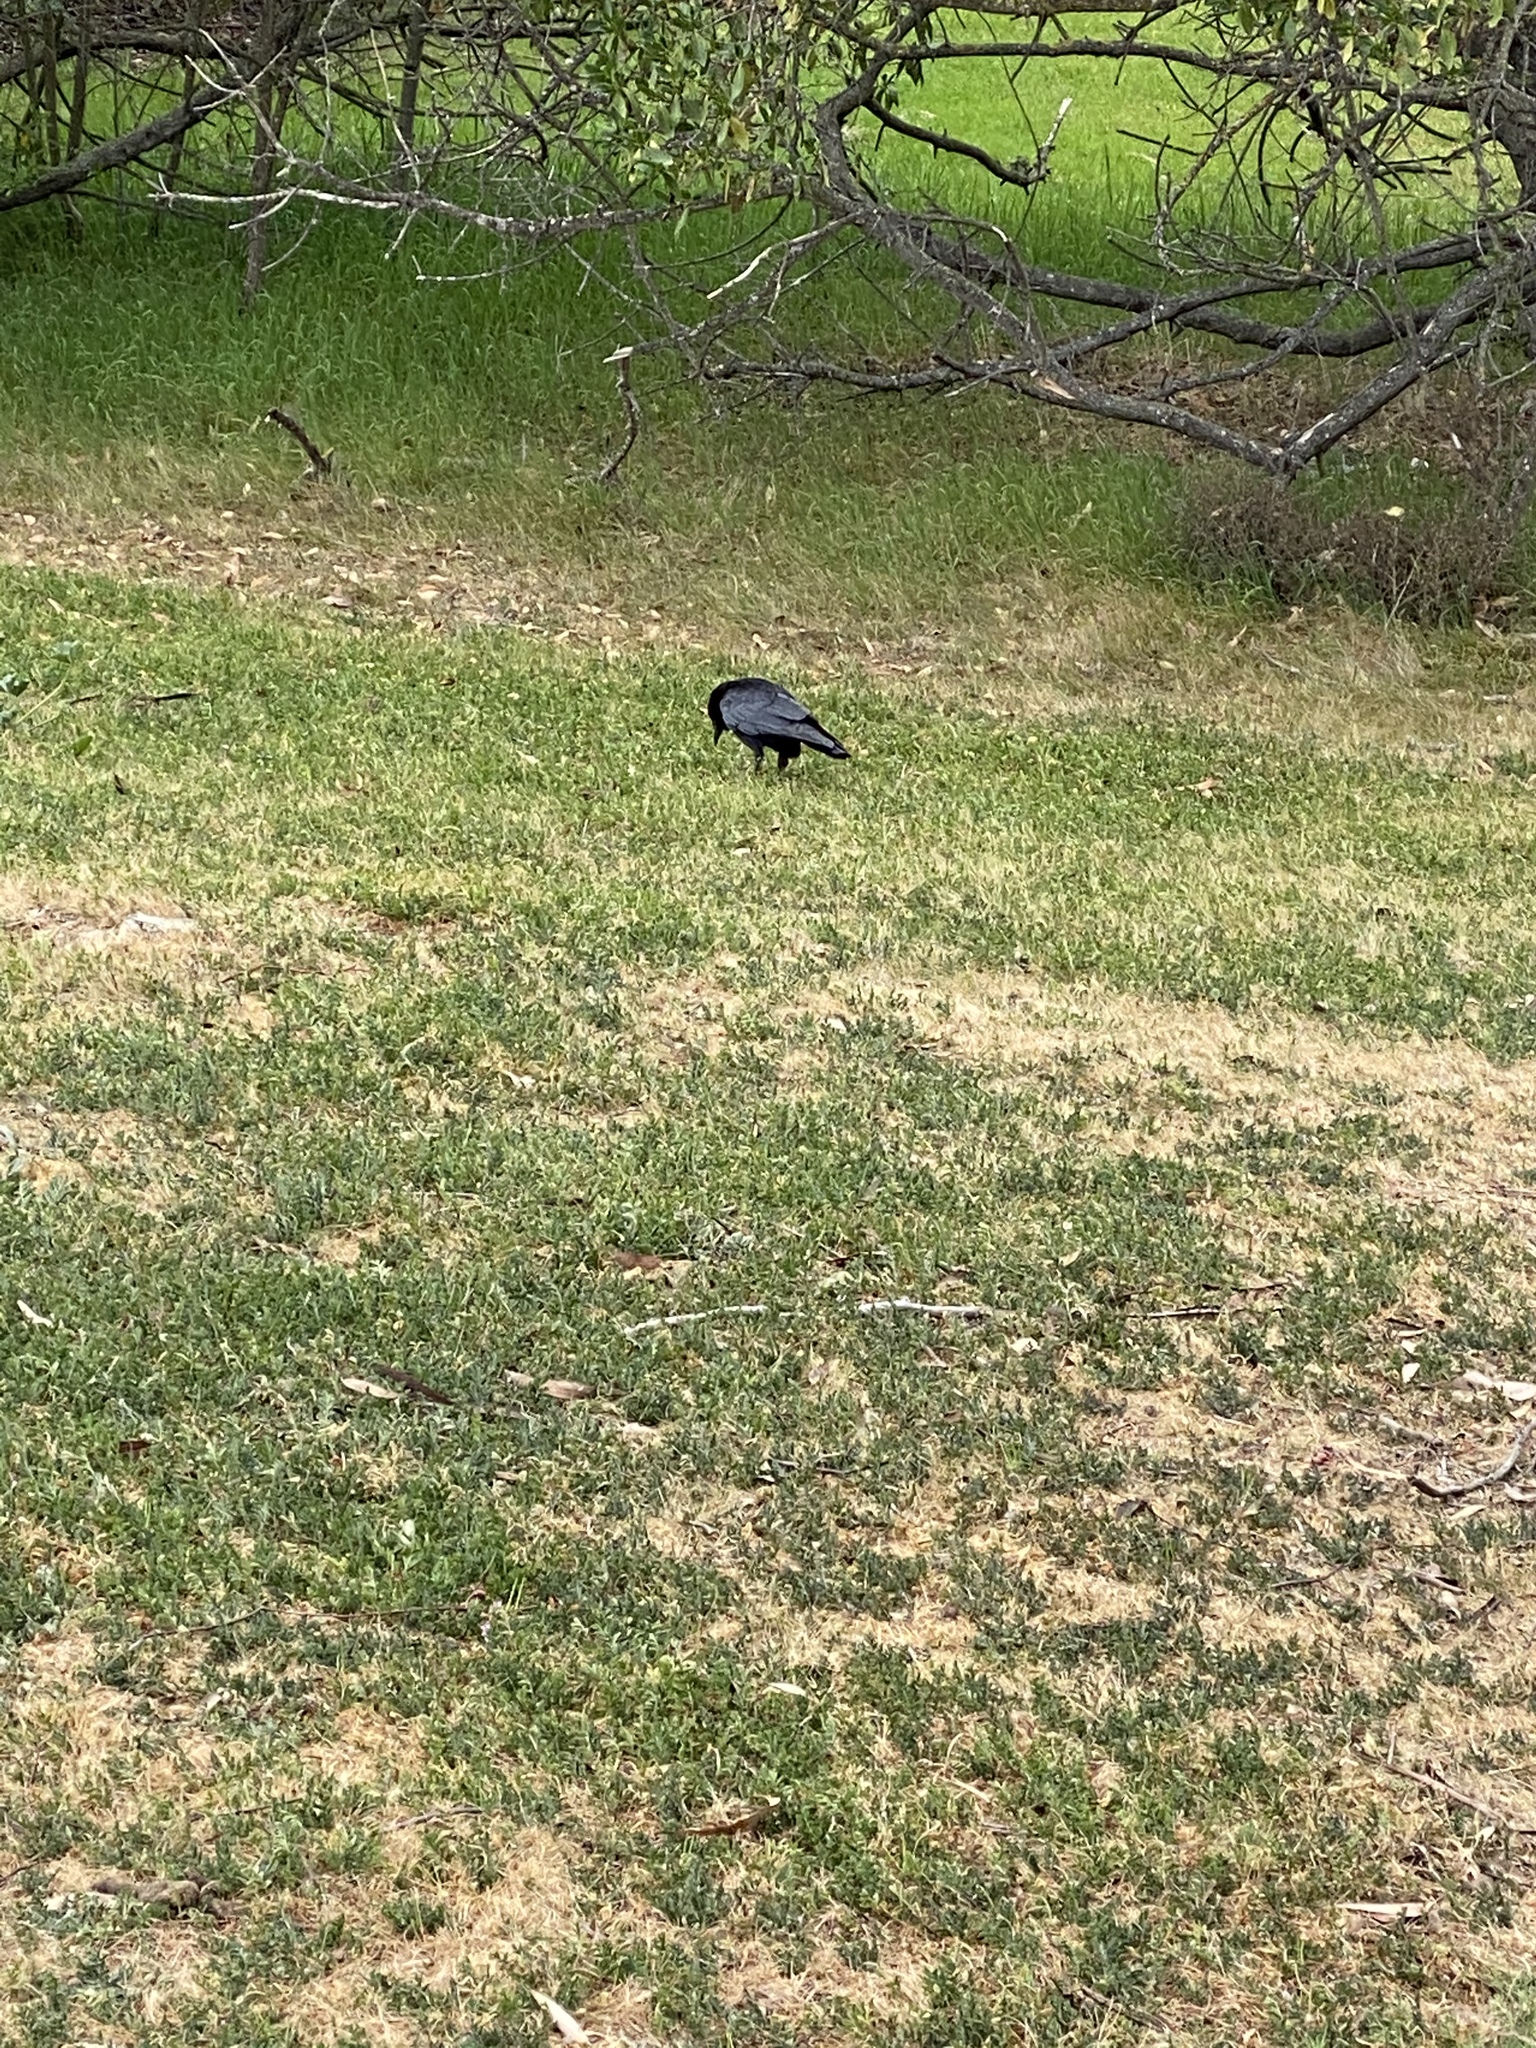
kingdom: Animalia
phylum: Chordata
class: Aves
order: Passeriformes
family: Corvidae
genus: Corvus
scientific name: Corvus brachyrhynchos
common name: American crow
